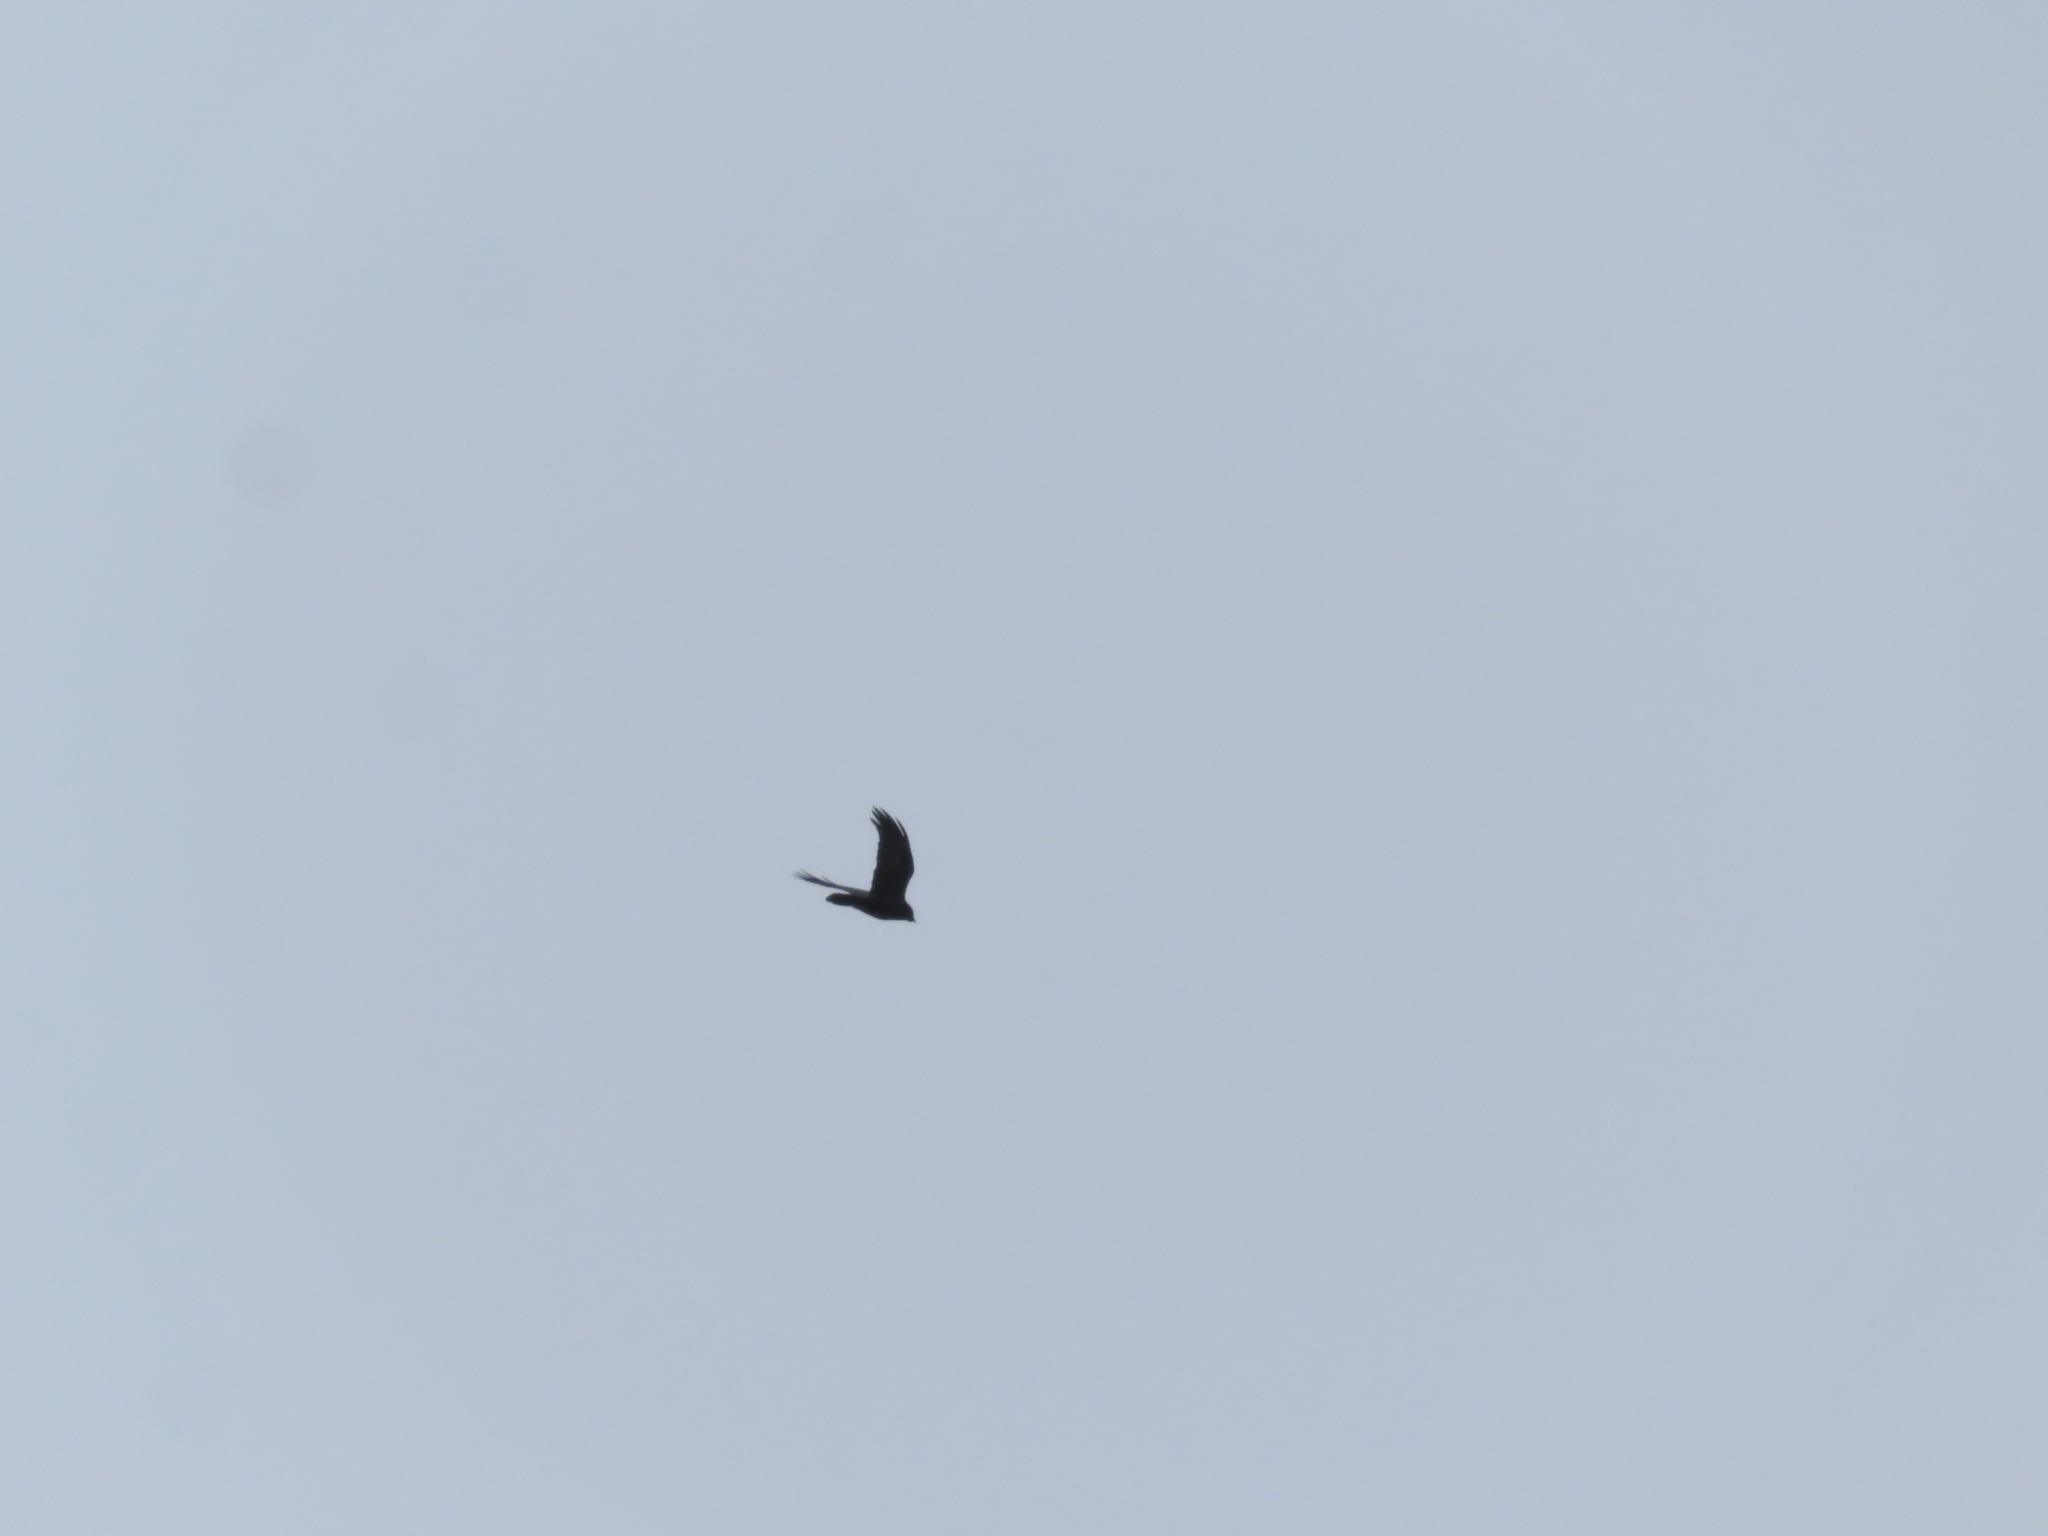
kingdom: Animalia
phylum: Chordata
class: Aves
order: Passeriformes
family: Corvidae
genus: Corvus
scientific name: Corvus corax
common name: Common raven
